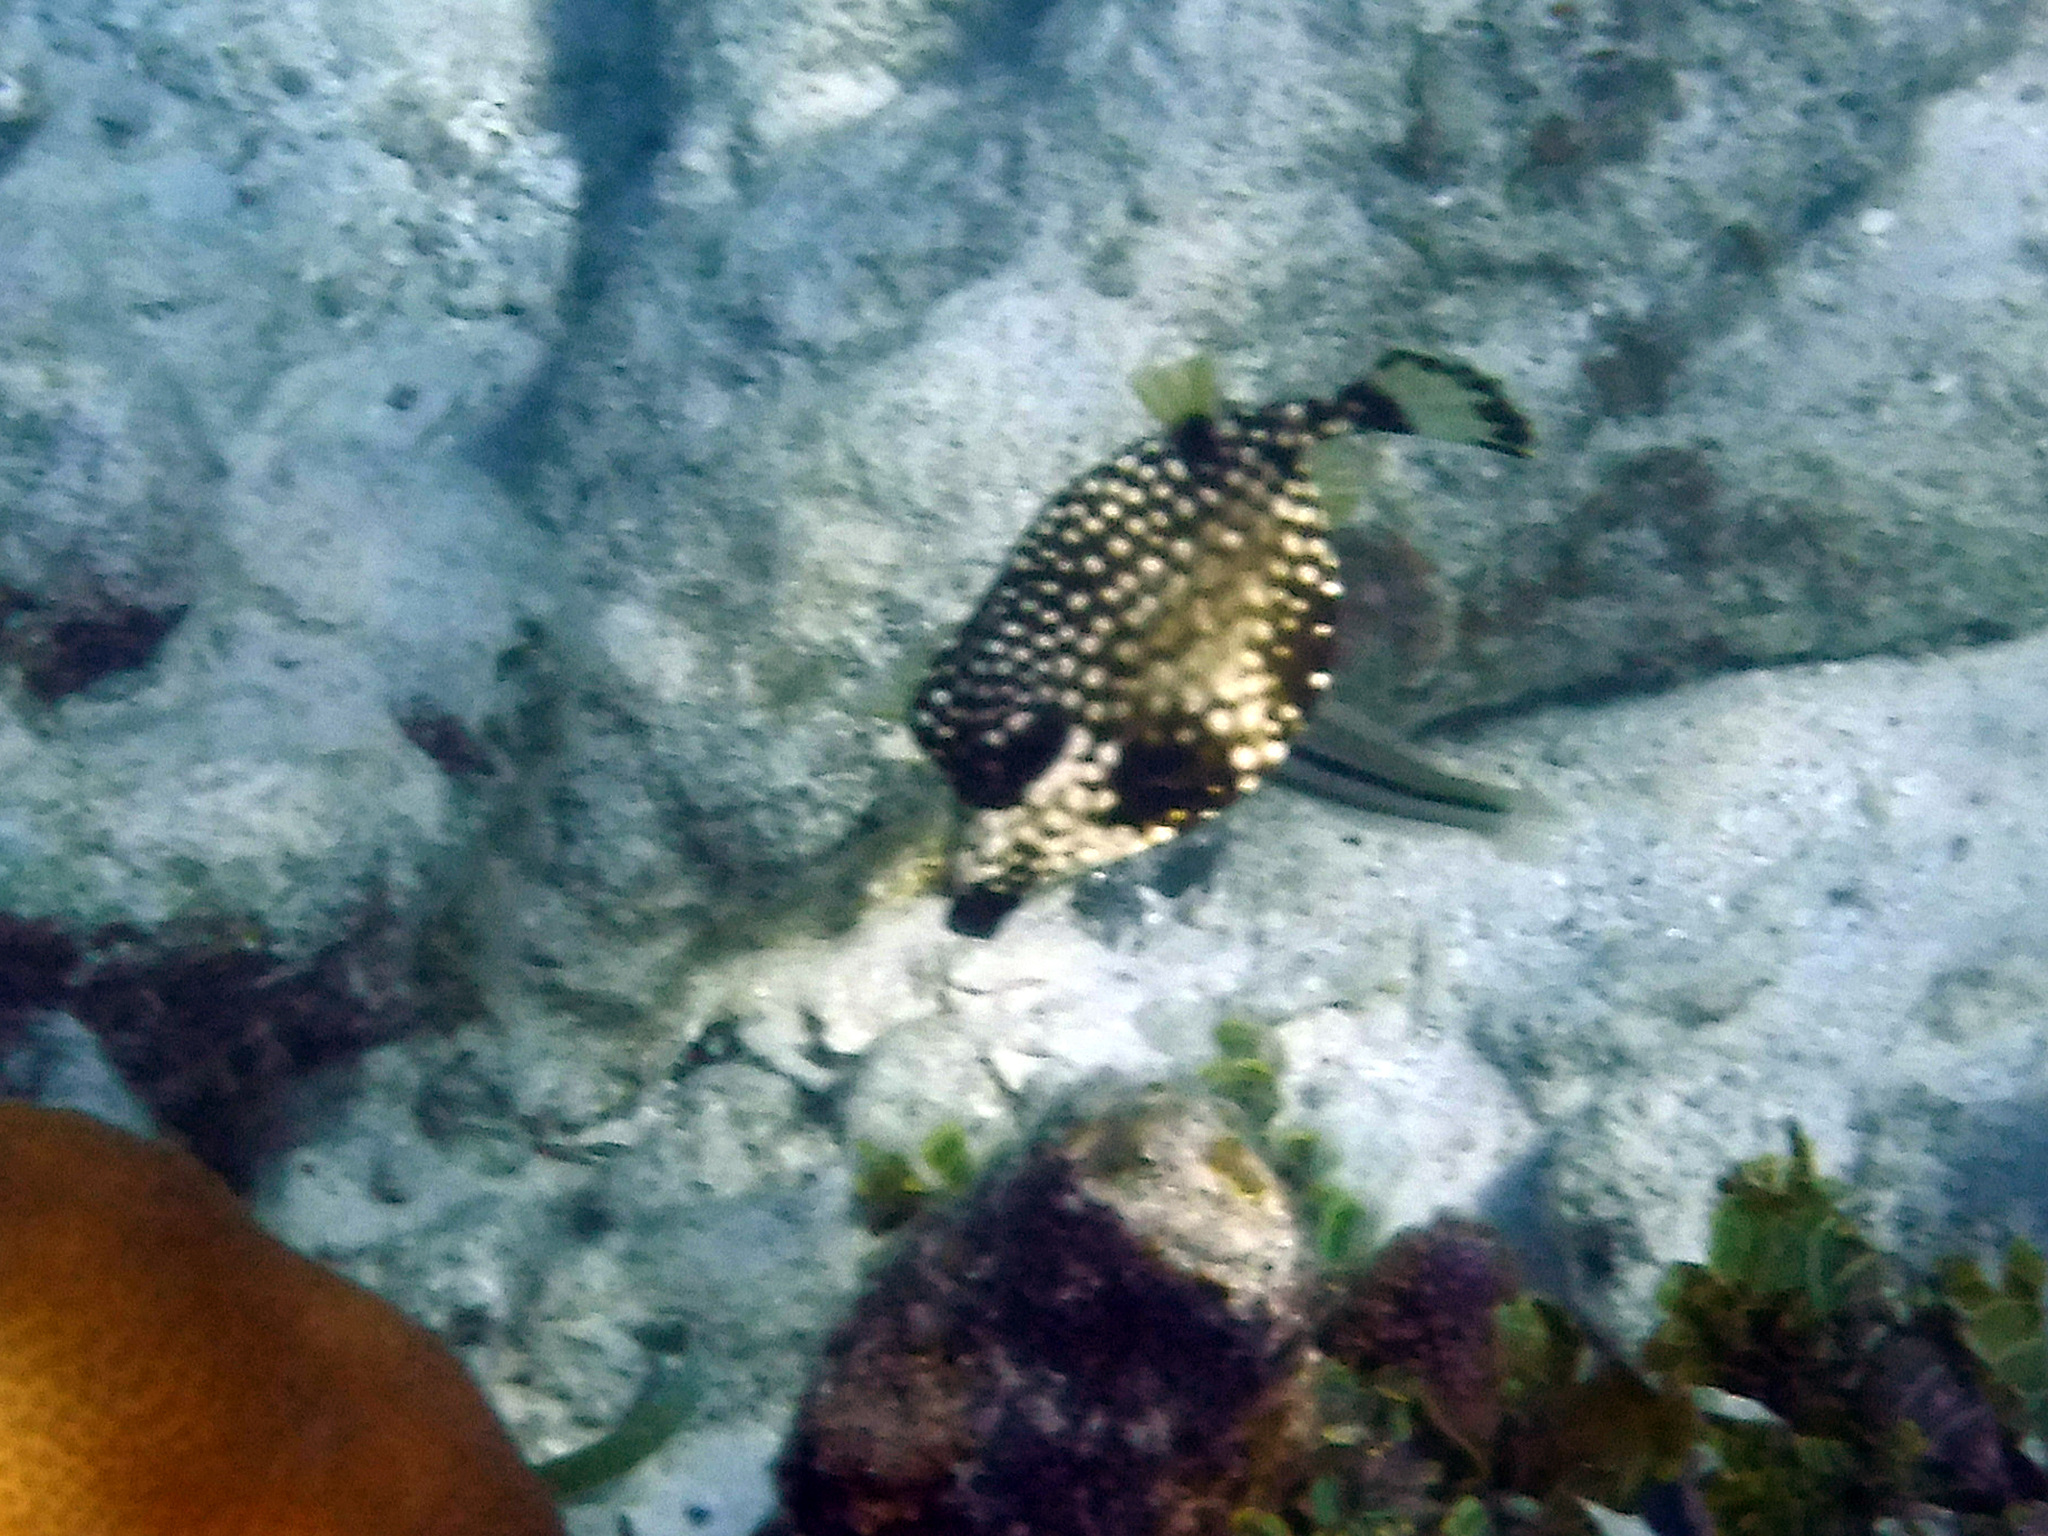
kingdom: Animalia
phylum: Chordata
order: Tetraodontiformes
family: Ostraciidae
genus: Lactophrys
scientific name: Lactophrys triqueter
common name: Smooth trunkfish
